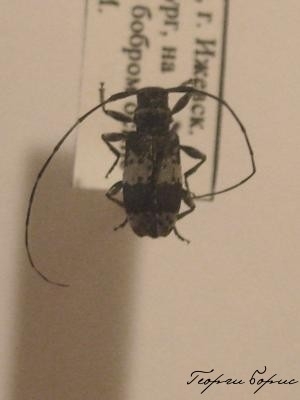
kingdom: Animalia
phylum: Arthropoda
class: Insecta
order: Coleoptera
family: Cerambycidae
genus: Leiopus
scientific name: Leiopus punctulatus
